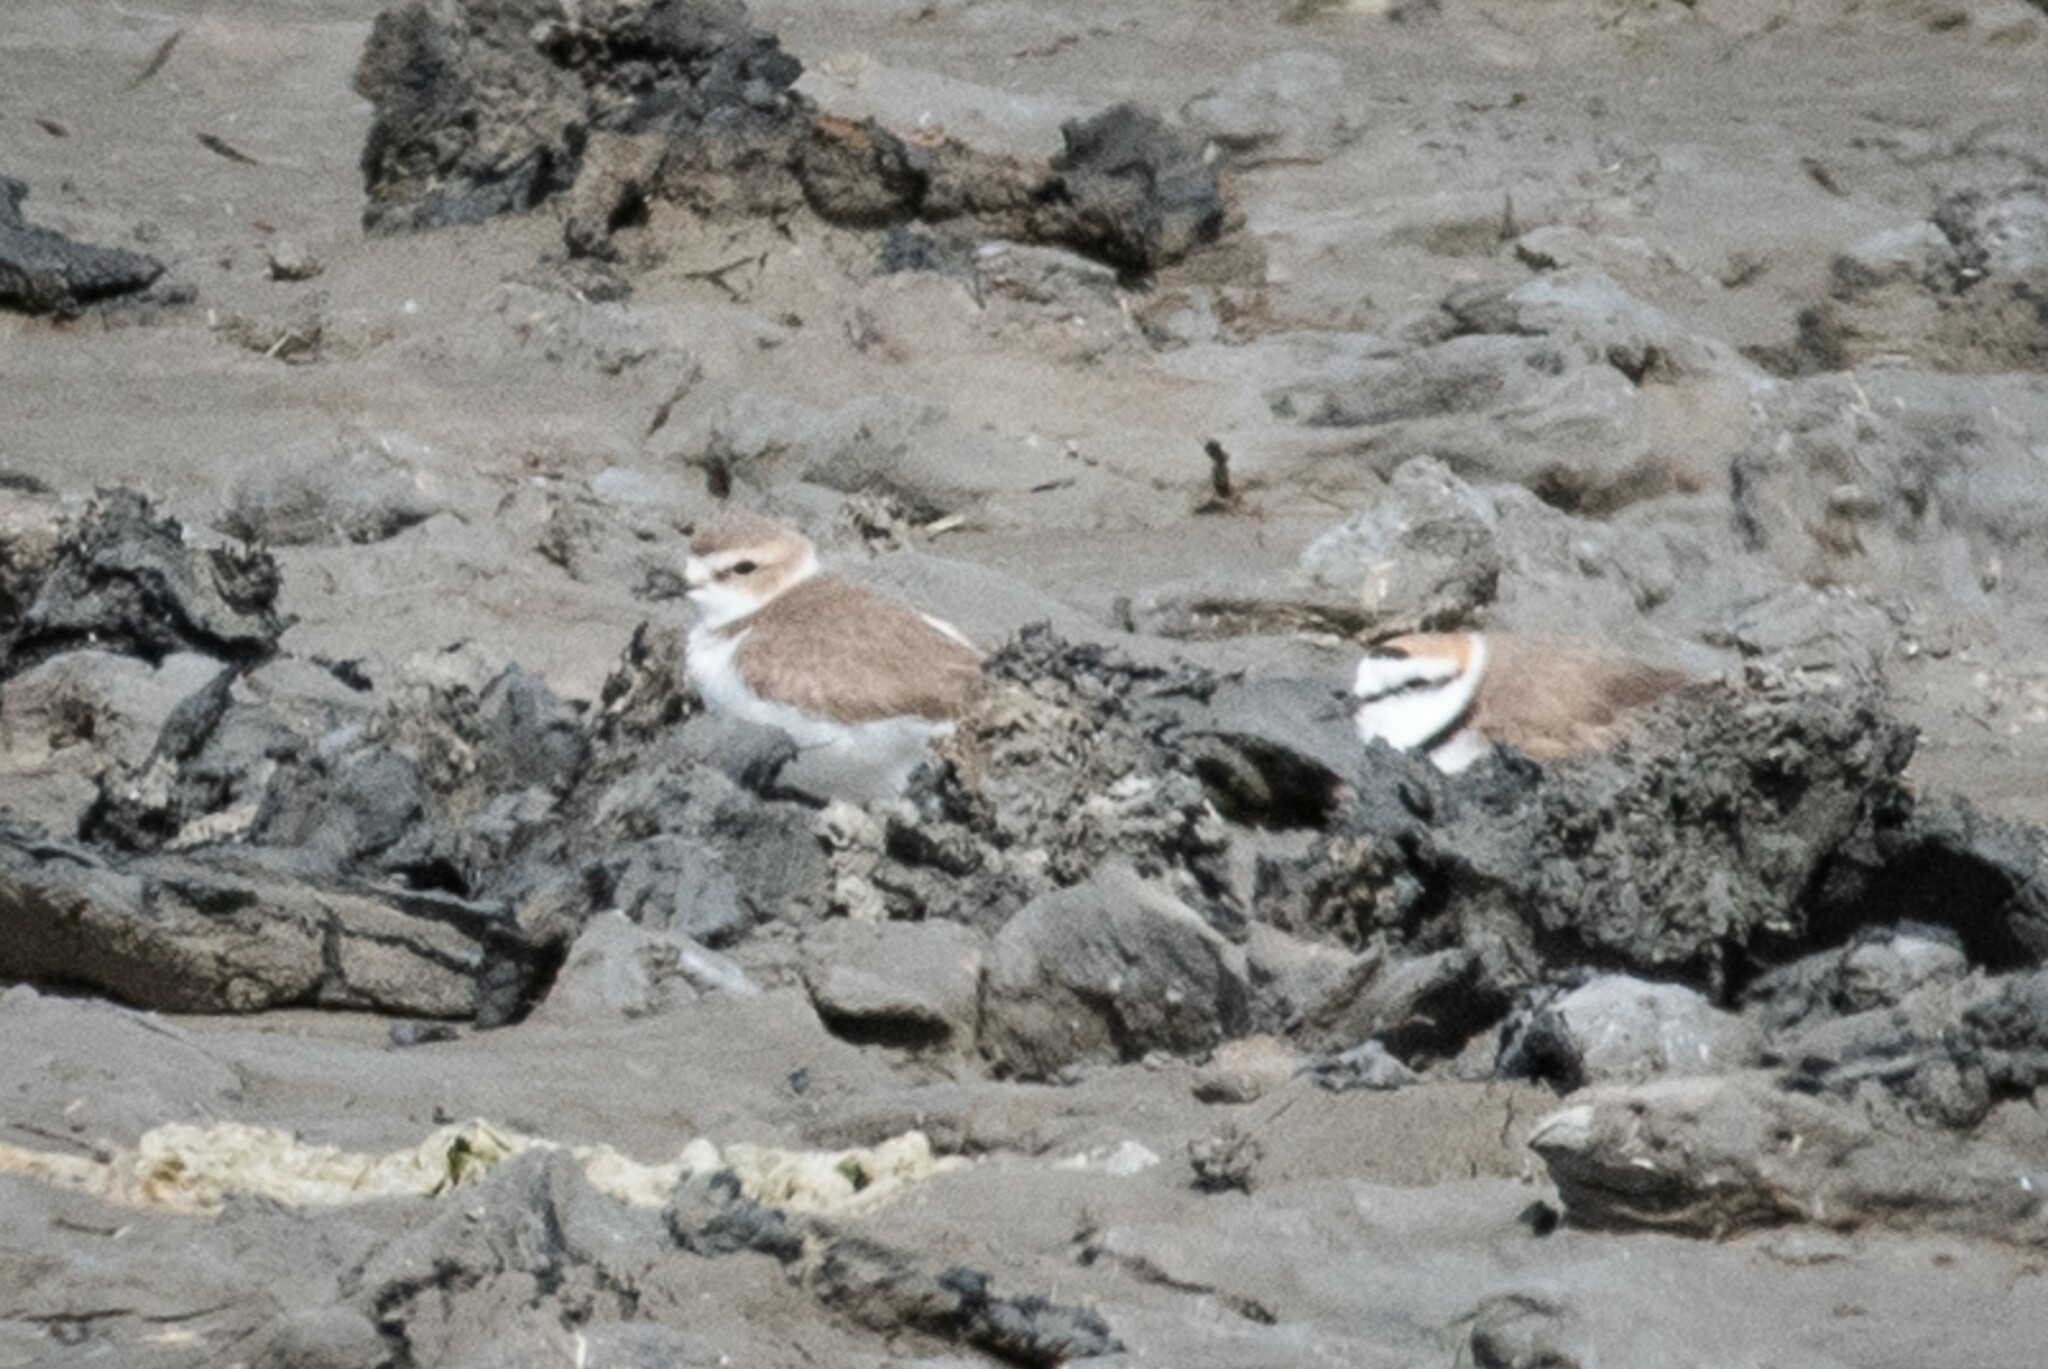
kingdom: Animalia
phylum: Chordata
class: Aves
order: Charadriiformes
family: Charadriidae
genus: Charadrius
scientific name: Charadrius alexandrinus
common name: Kentish plover
